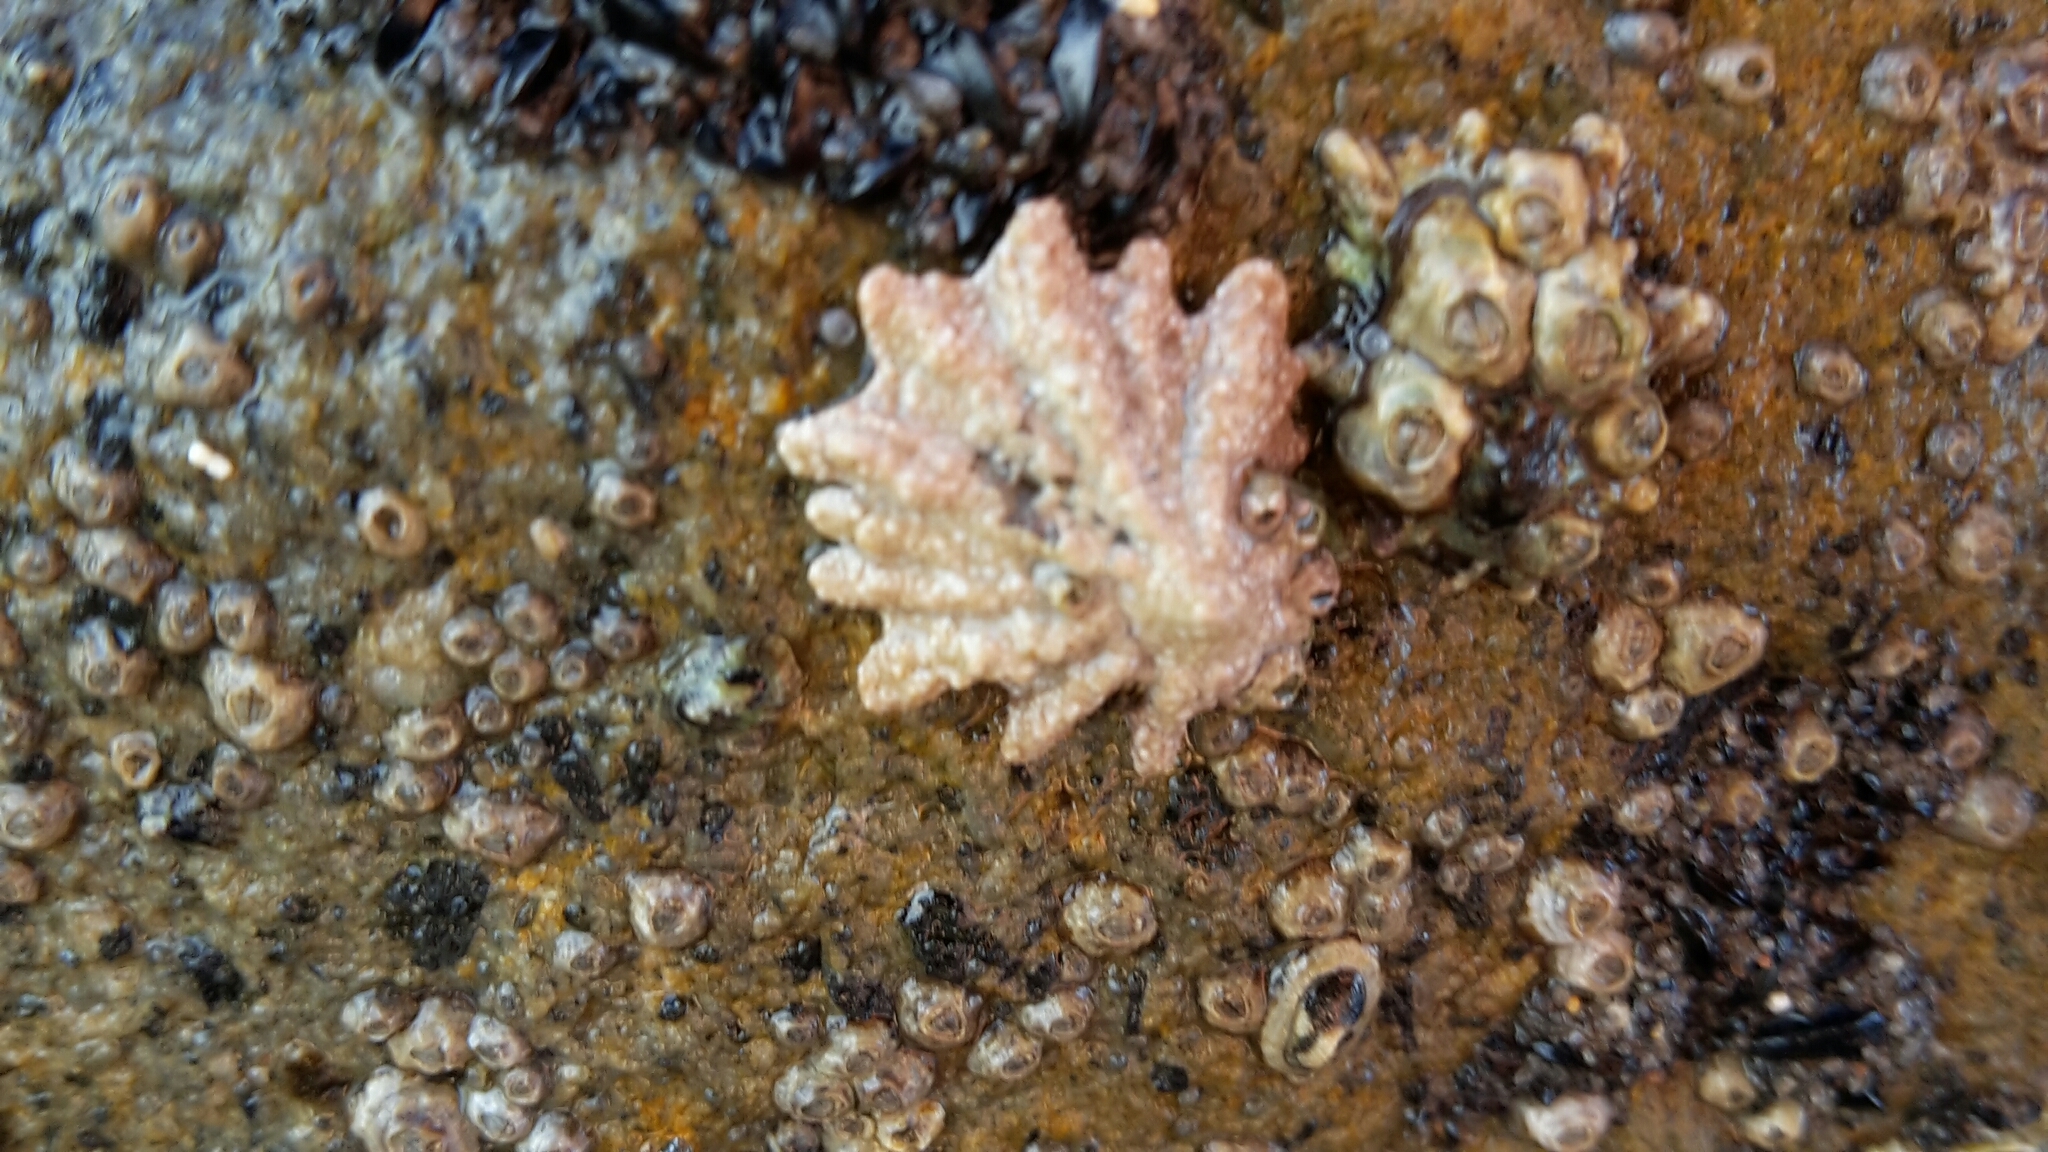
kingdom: Animalia
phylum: Mollusca
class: Gastropoda
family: Lottiidae
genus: Patelloida
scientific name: Patelloida corticata
